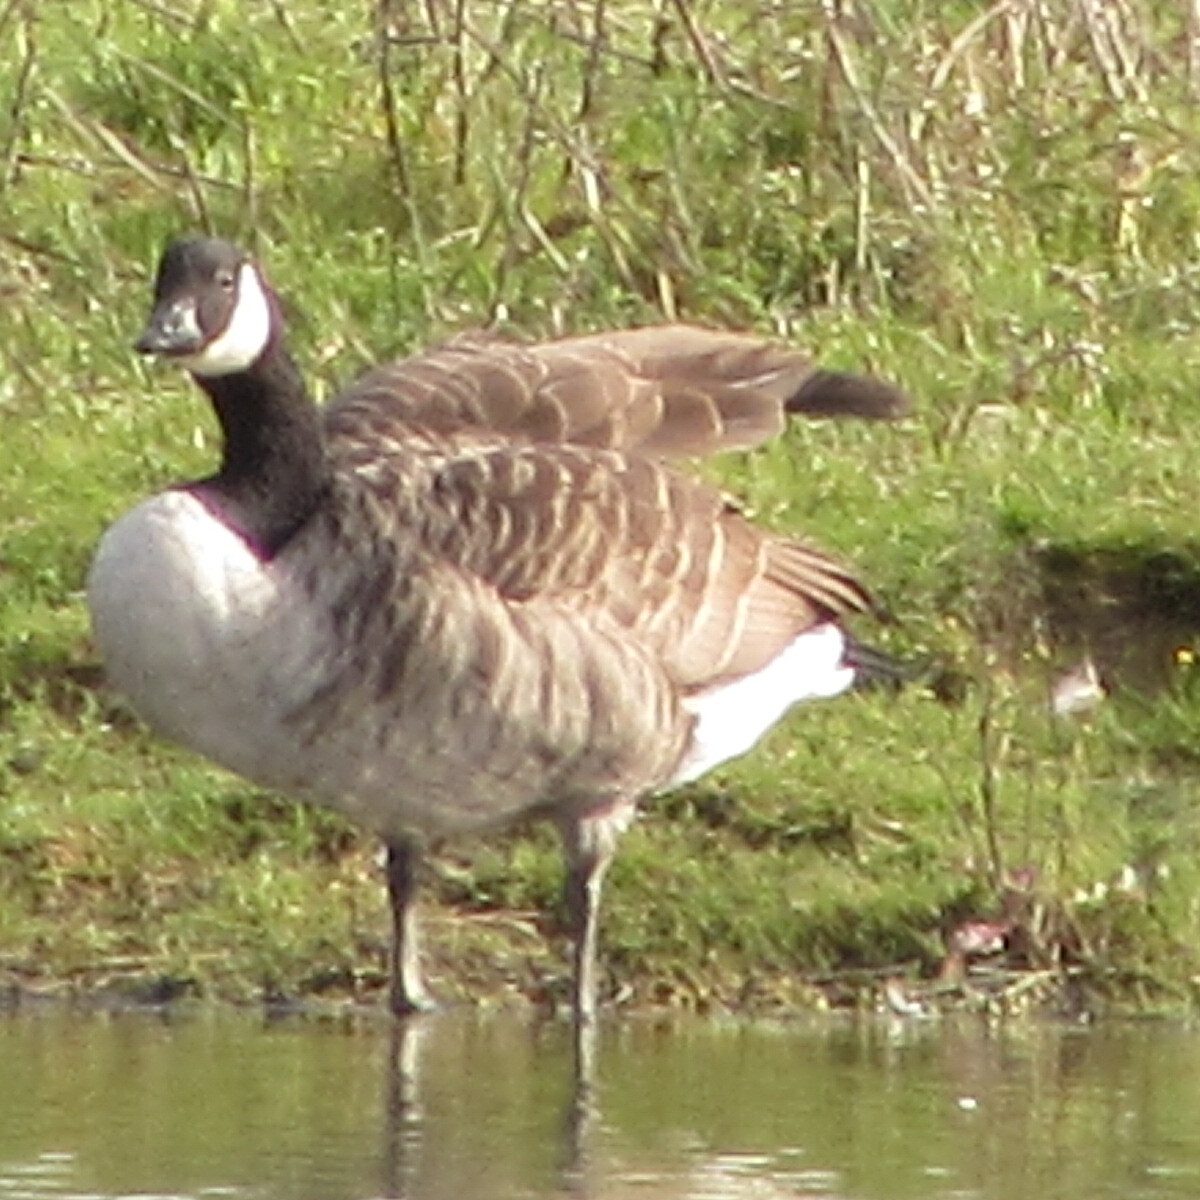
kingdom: Animalia
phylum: Chordata
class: Aves
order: Anseriformes
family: Anatidae
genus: Branta
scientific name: Branta canadensis
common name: Canada goose
